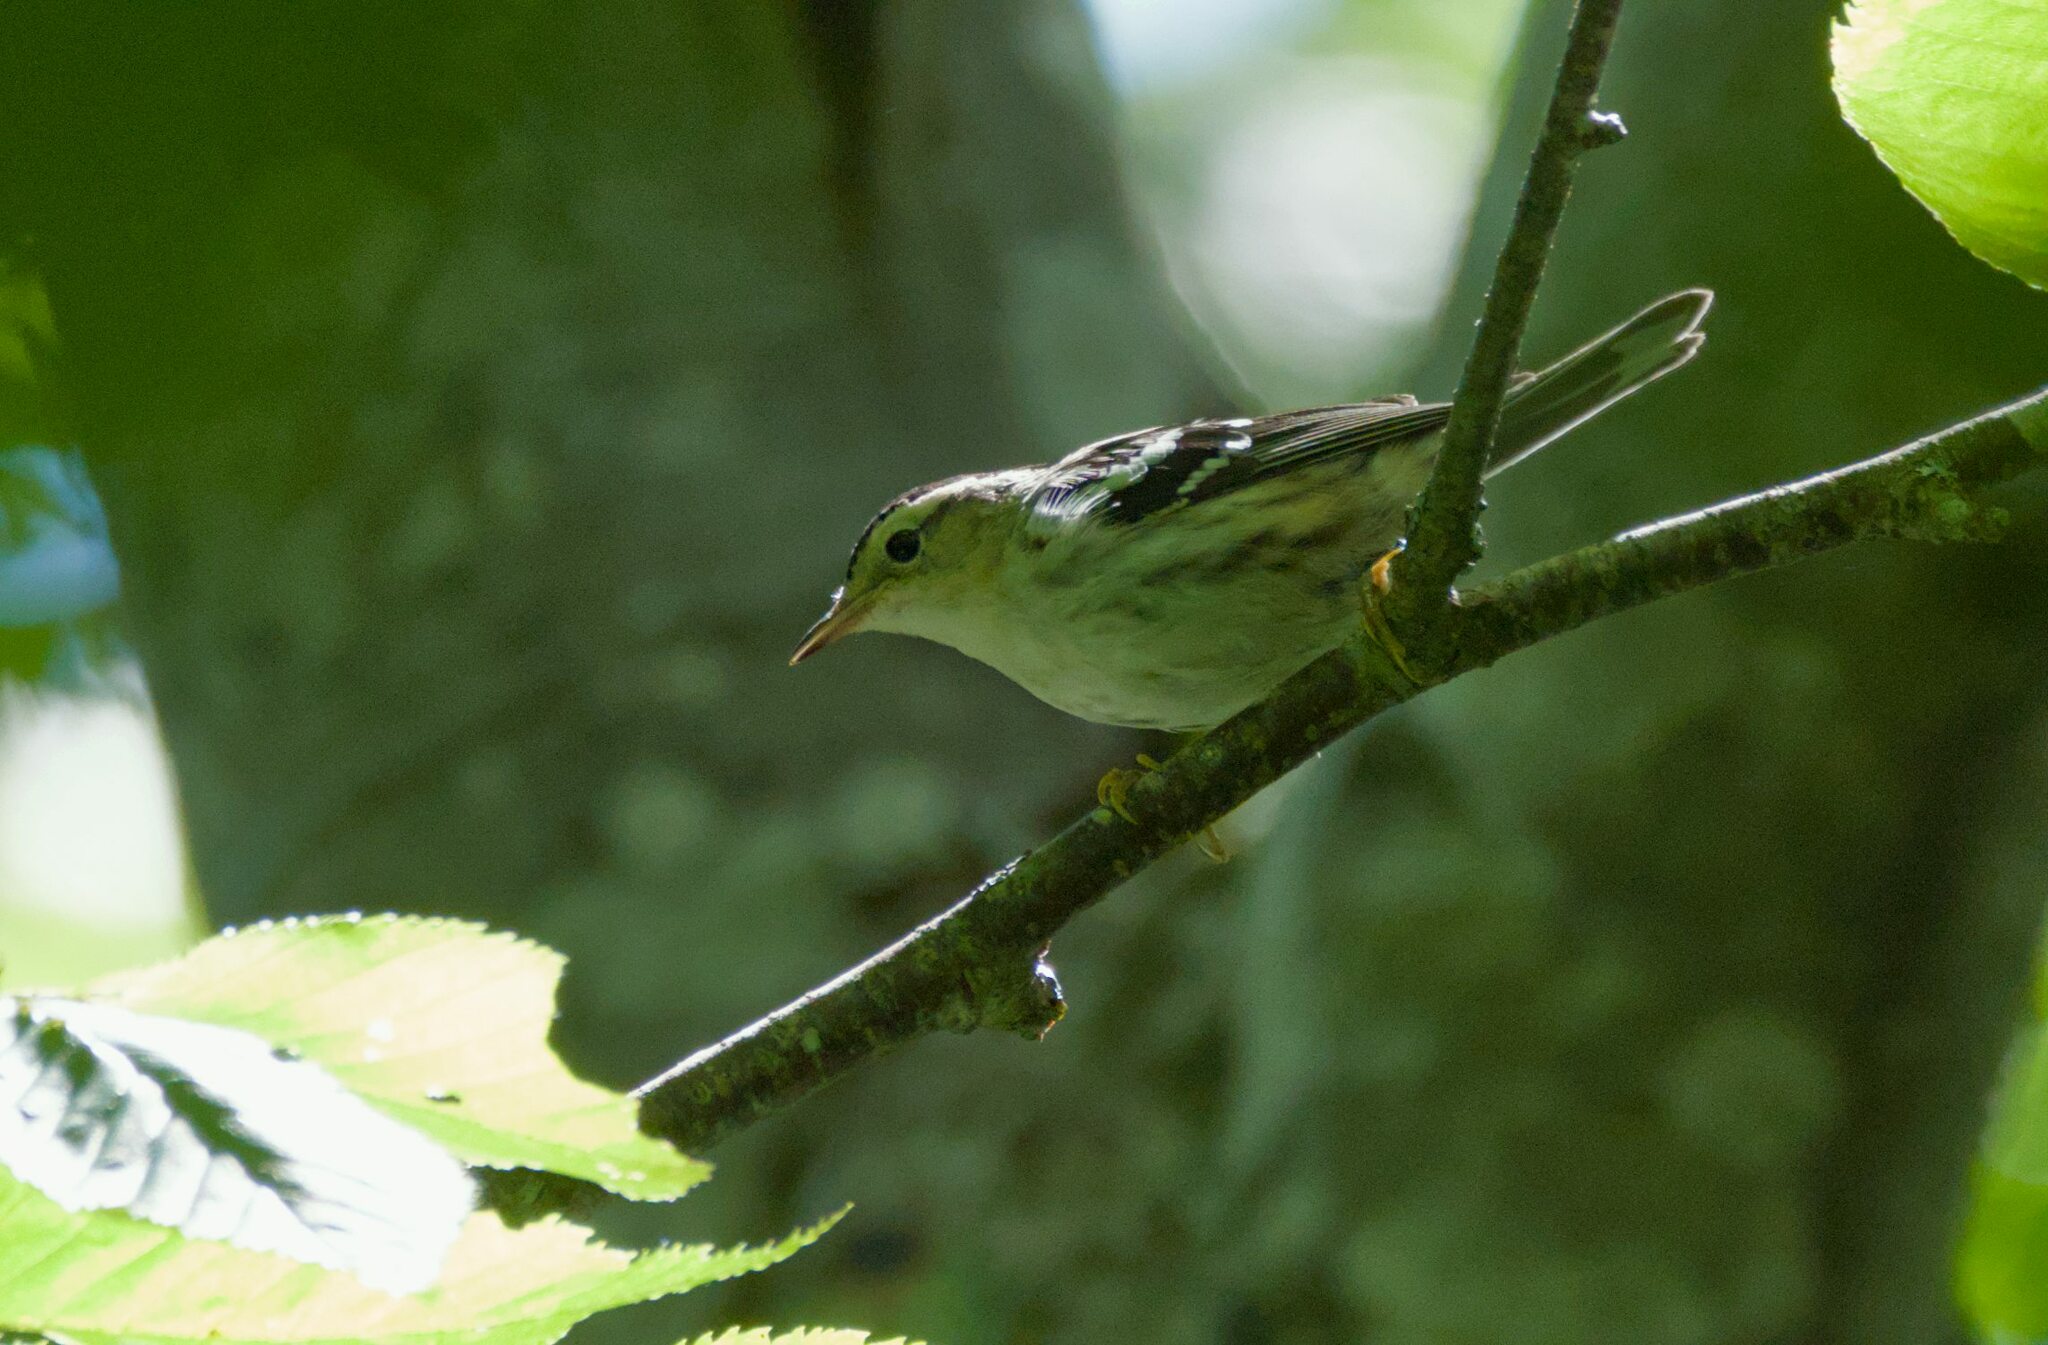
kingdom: Animalia
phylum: Chordata
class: Aves
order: Passeriformes
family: Parulidae
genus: Mniotilta
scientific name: Mniotilta varia
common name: Black-and-white warbler
